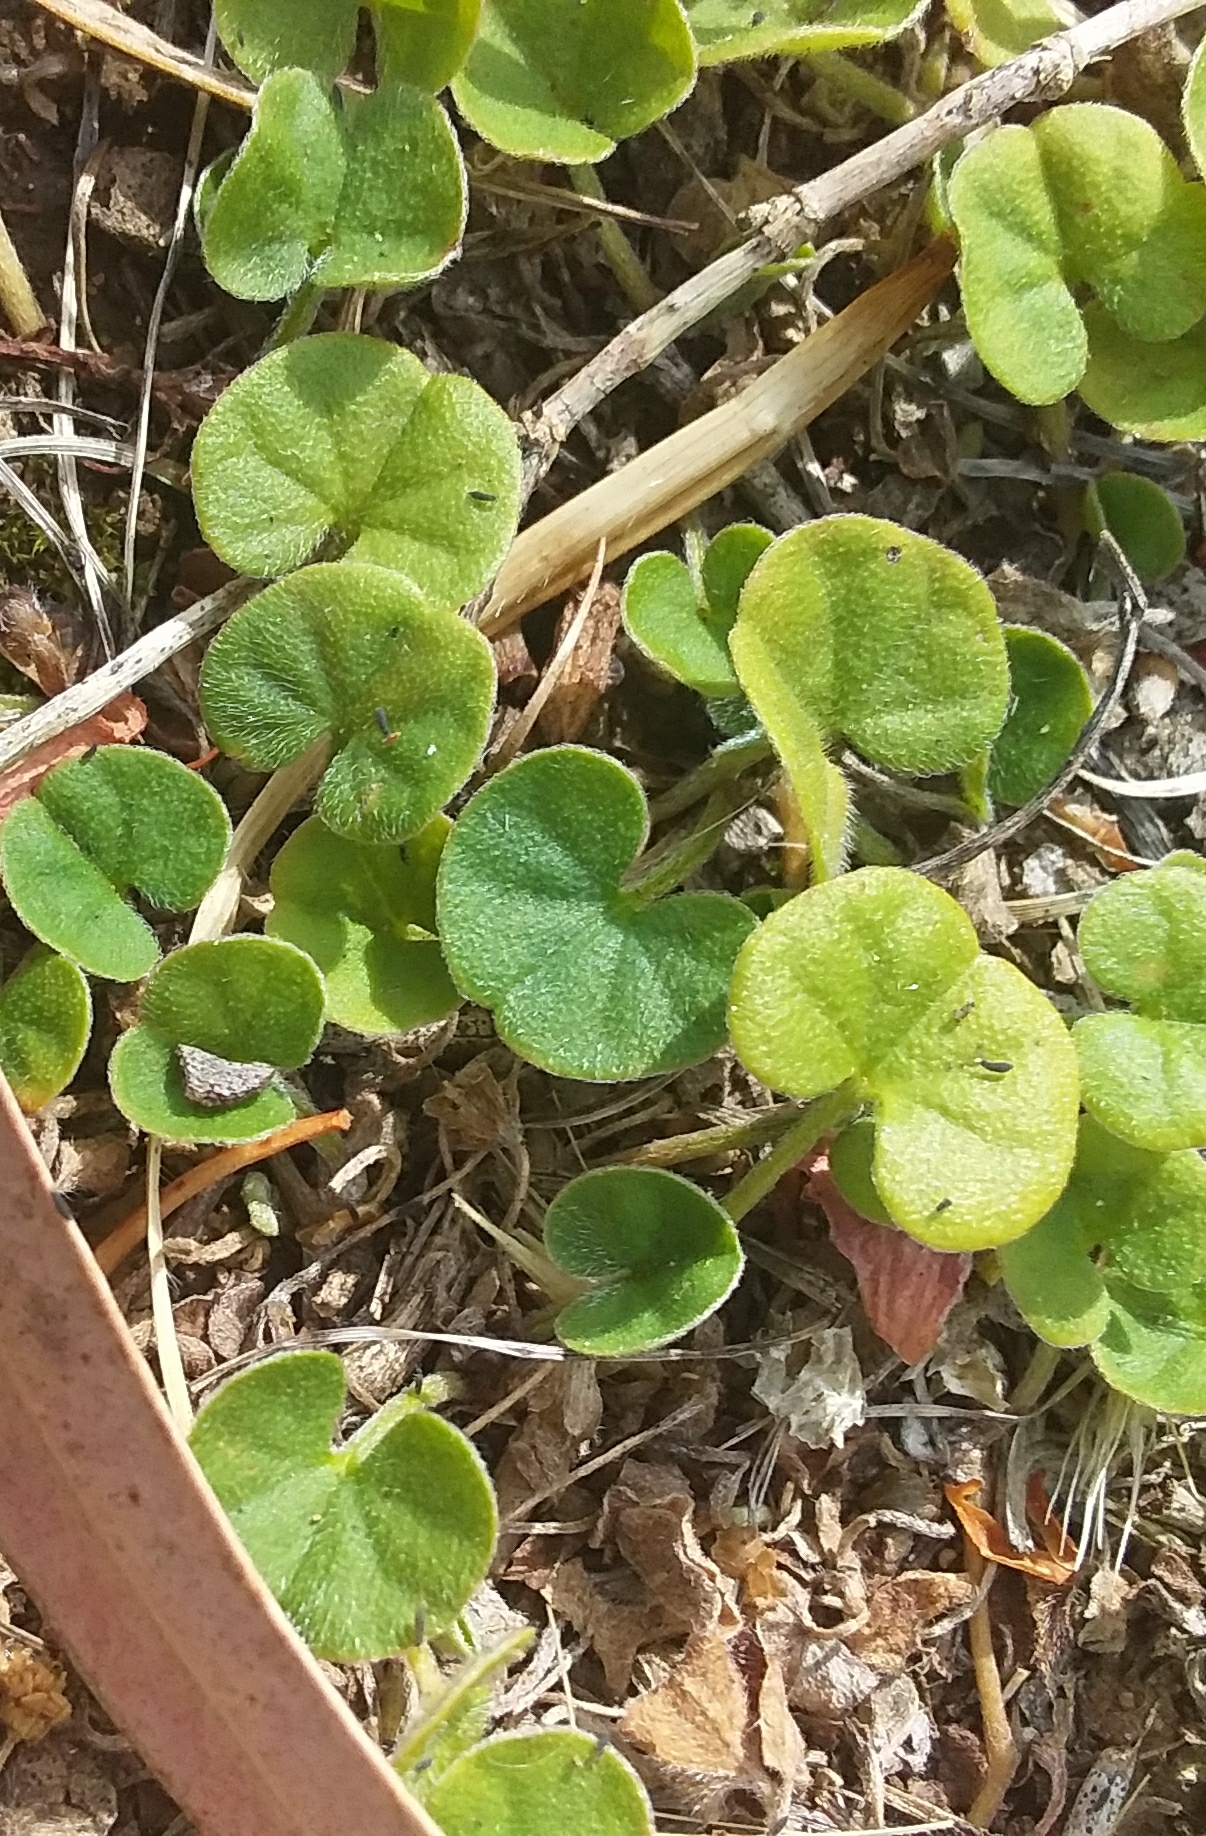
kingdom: Plantae
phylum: Tracheophyta
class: Magnoliopsida
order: Solanales
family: Convolvulaceae
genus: Dichondra
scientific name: Dichondra repens
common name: Kidneyweed
